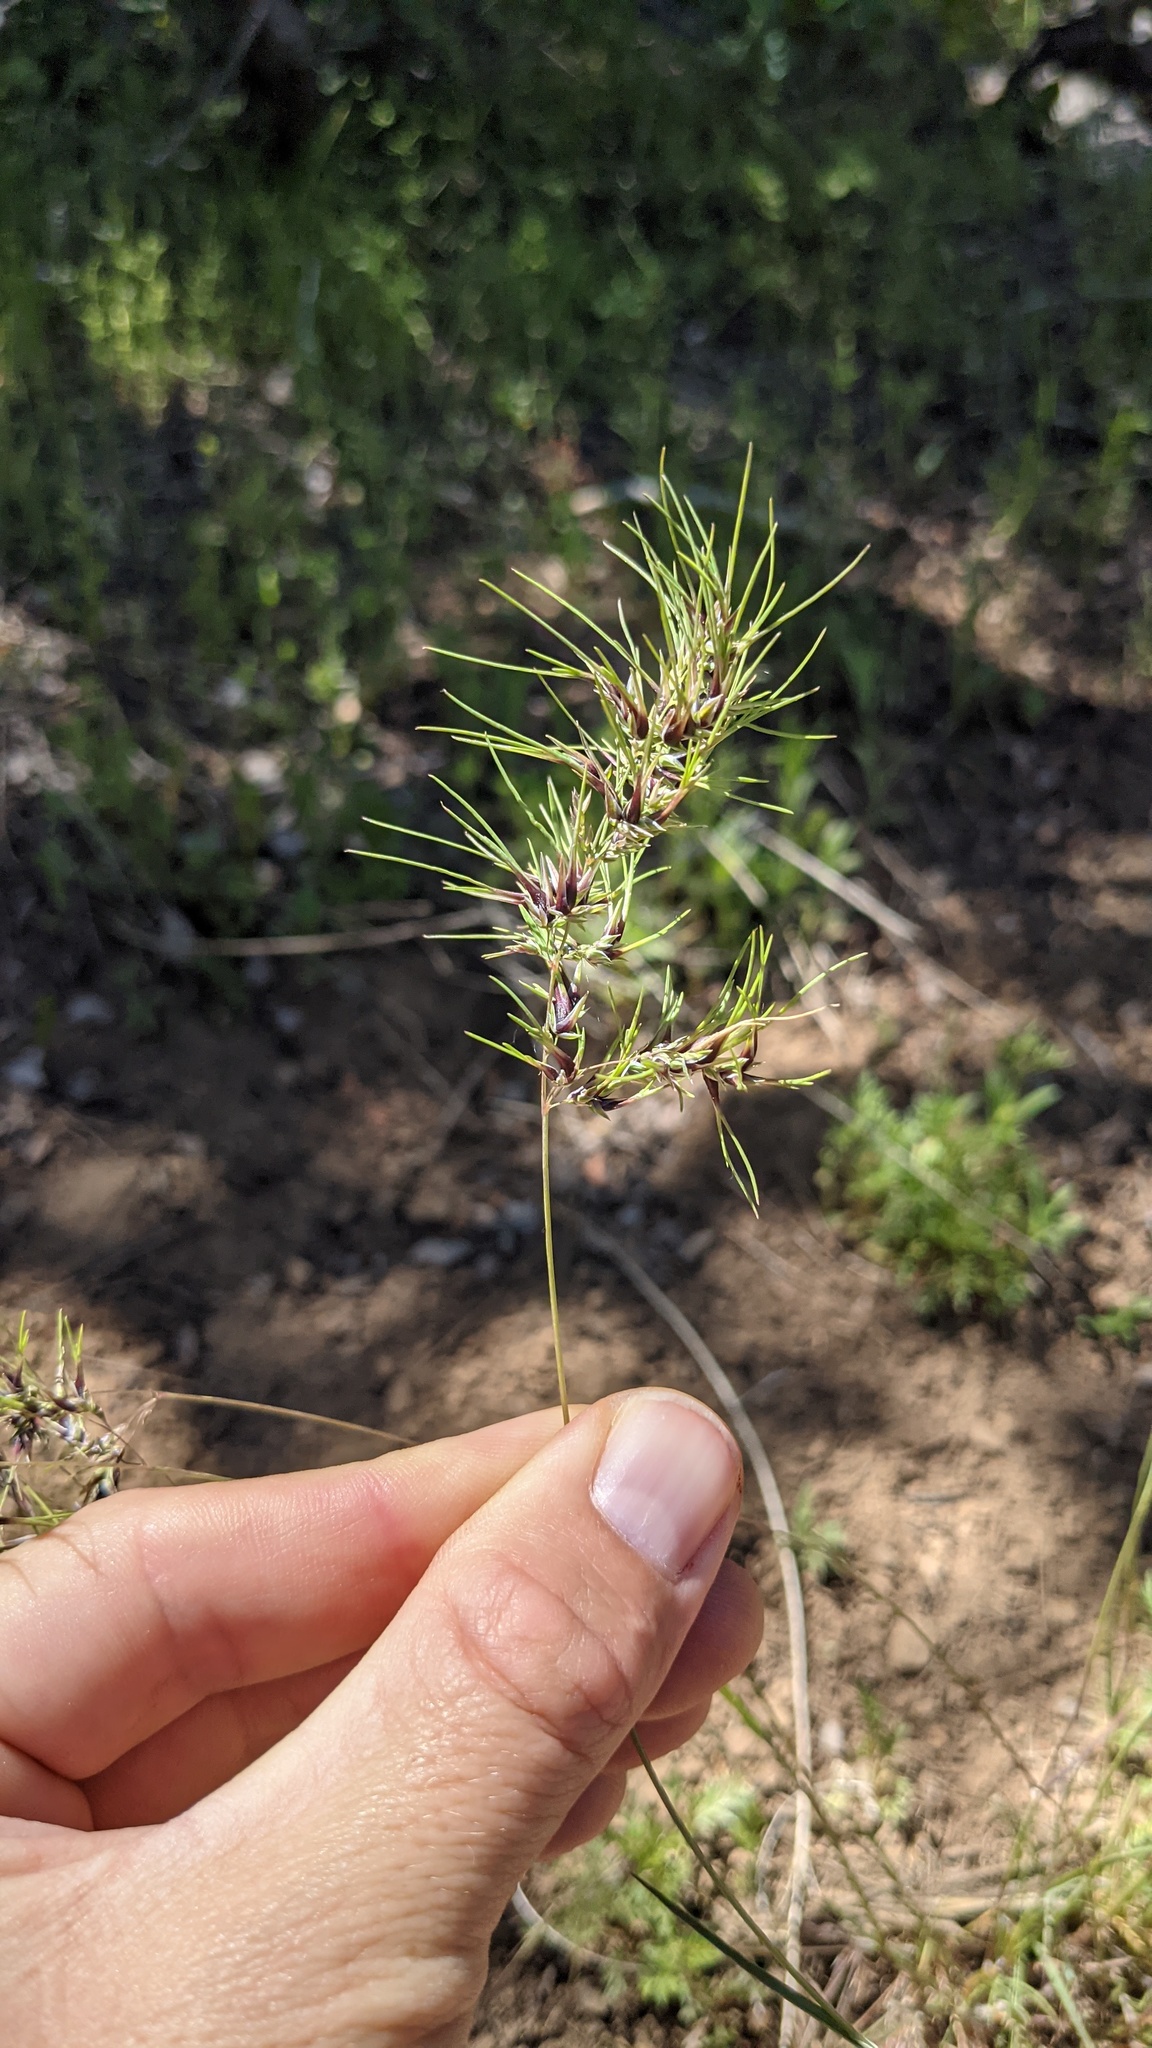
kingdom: Plantae
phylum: Tracheophyta
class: Liliopsida
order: Poales
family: Poaceae
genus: Poa
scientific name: Poa bulbosa
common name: Bulbous bluegrass
